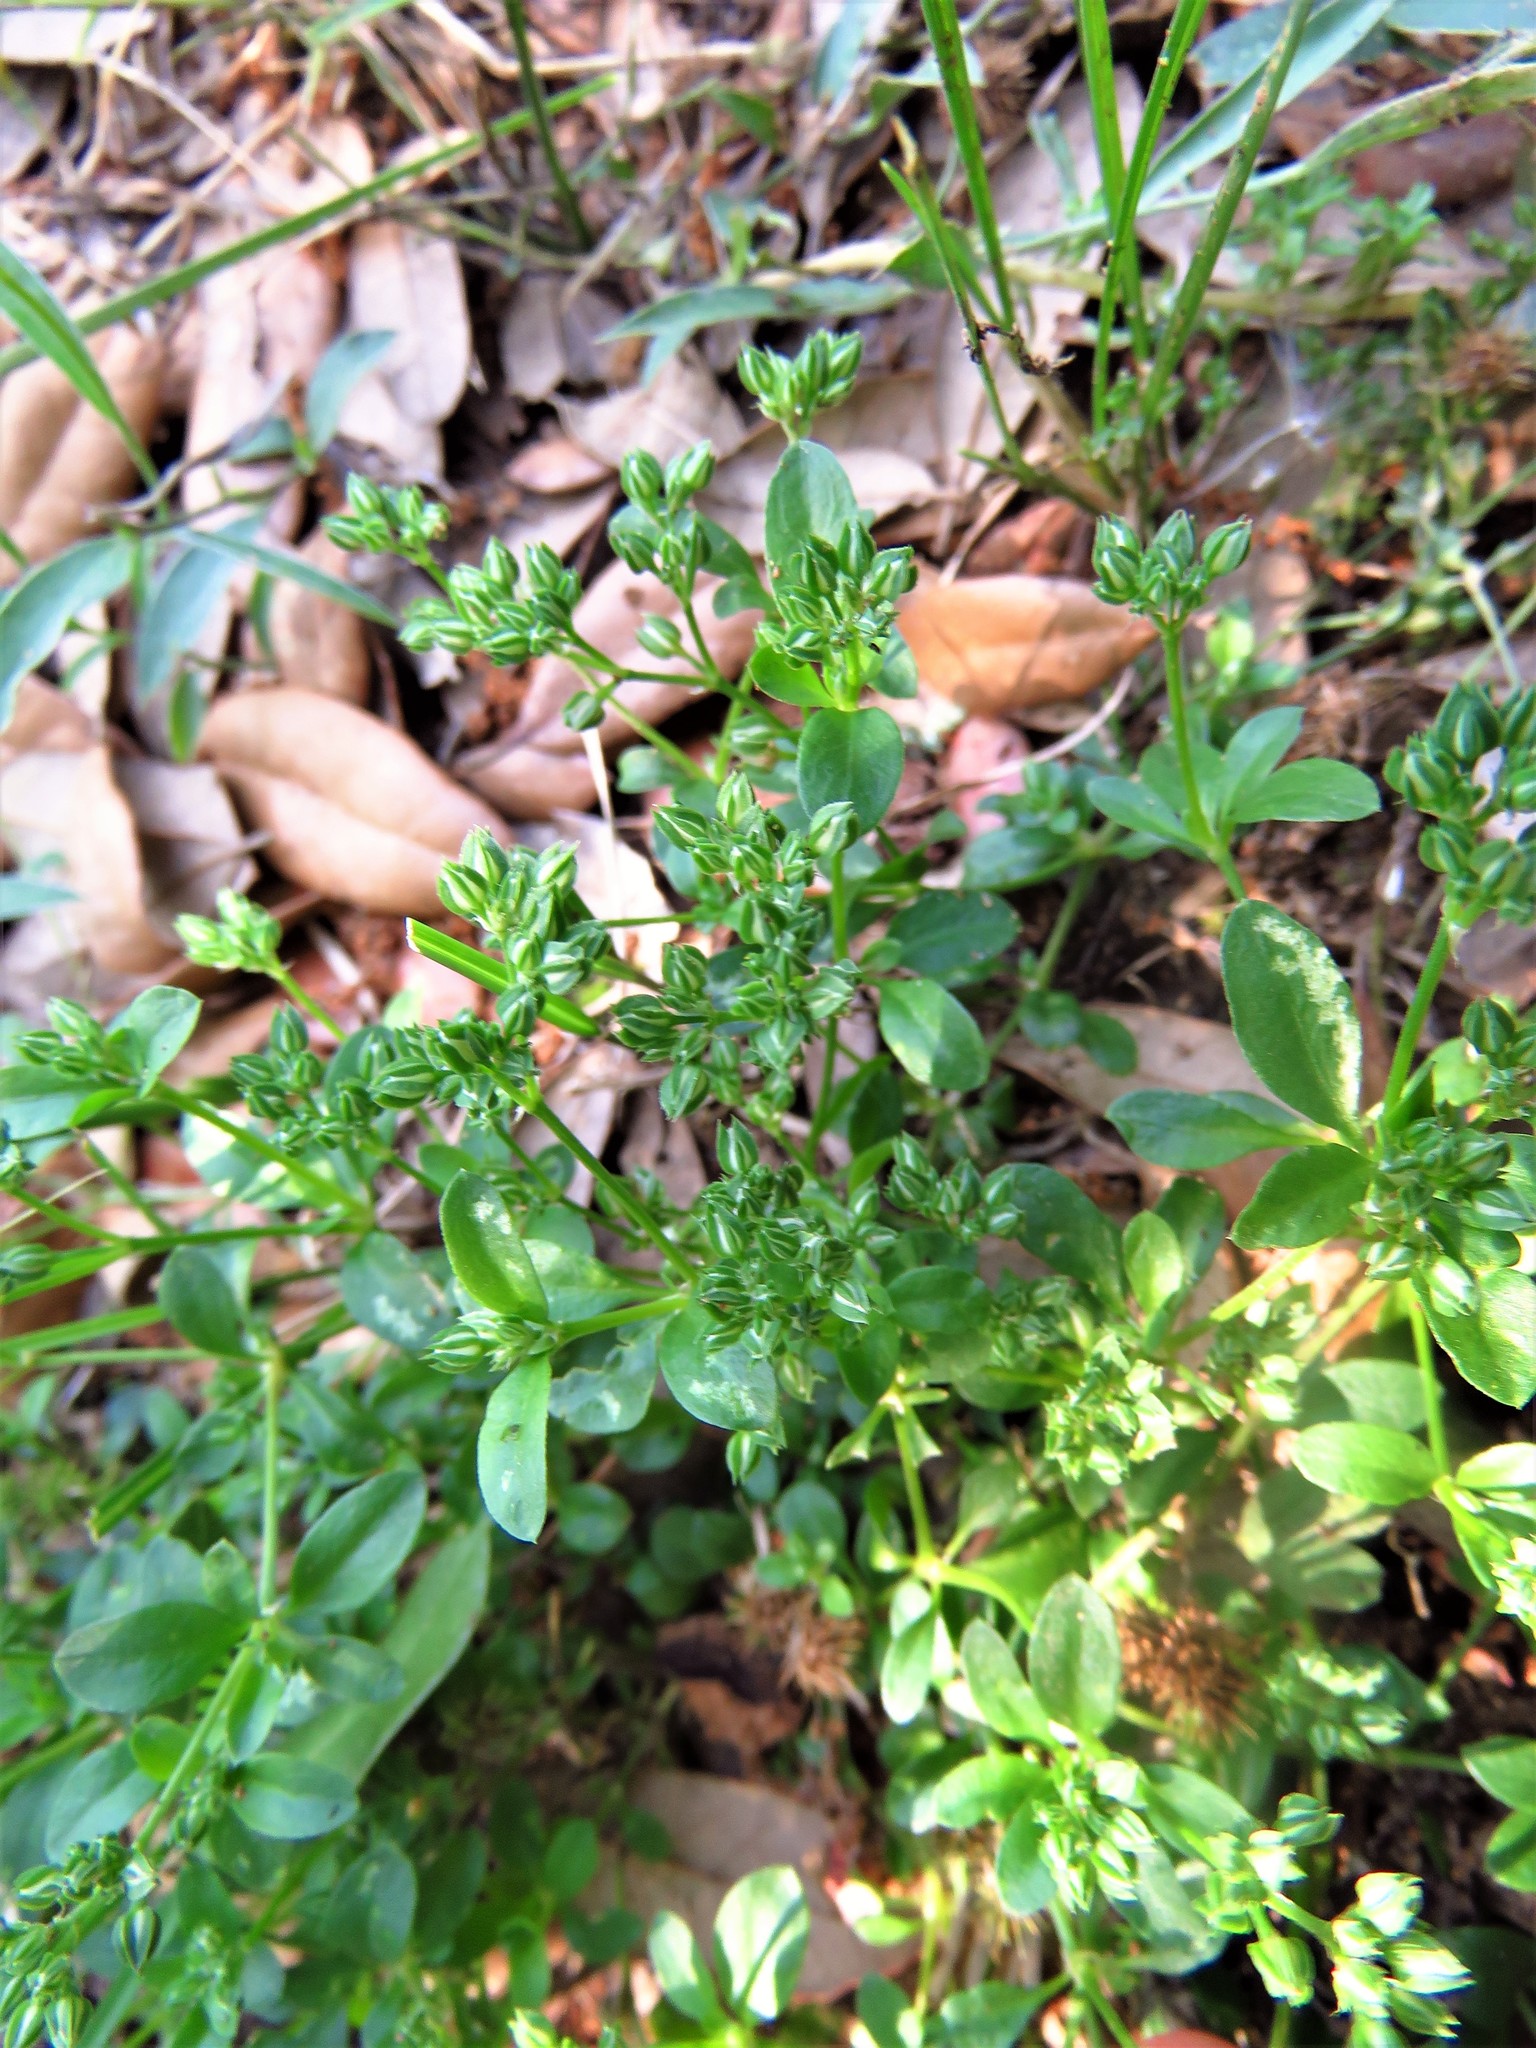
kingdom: Plantae
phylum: Tracheophyta
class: Magnoliopsida
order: Caryophyllales
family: Caryophyllaceae
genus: Polycarpon
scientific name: Polycarpon tetraphyllum
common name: Four-leaved all-seed
